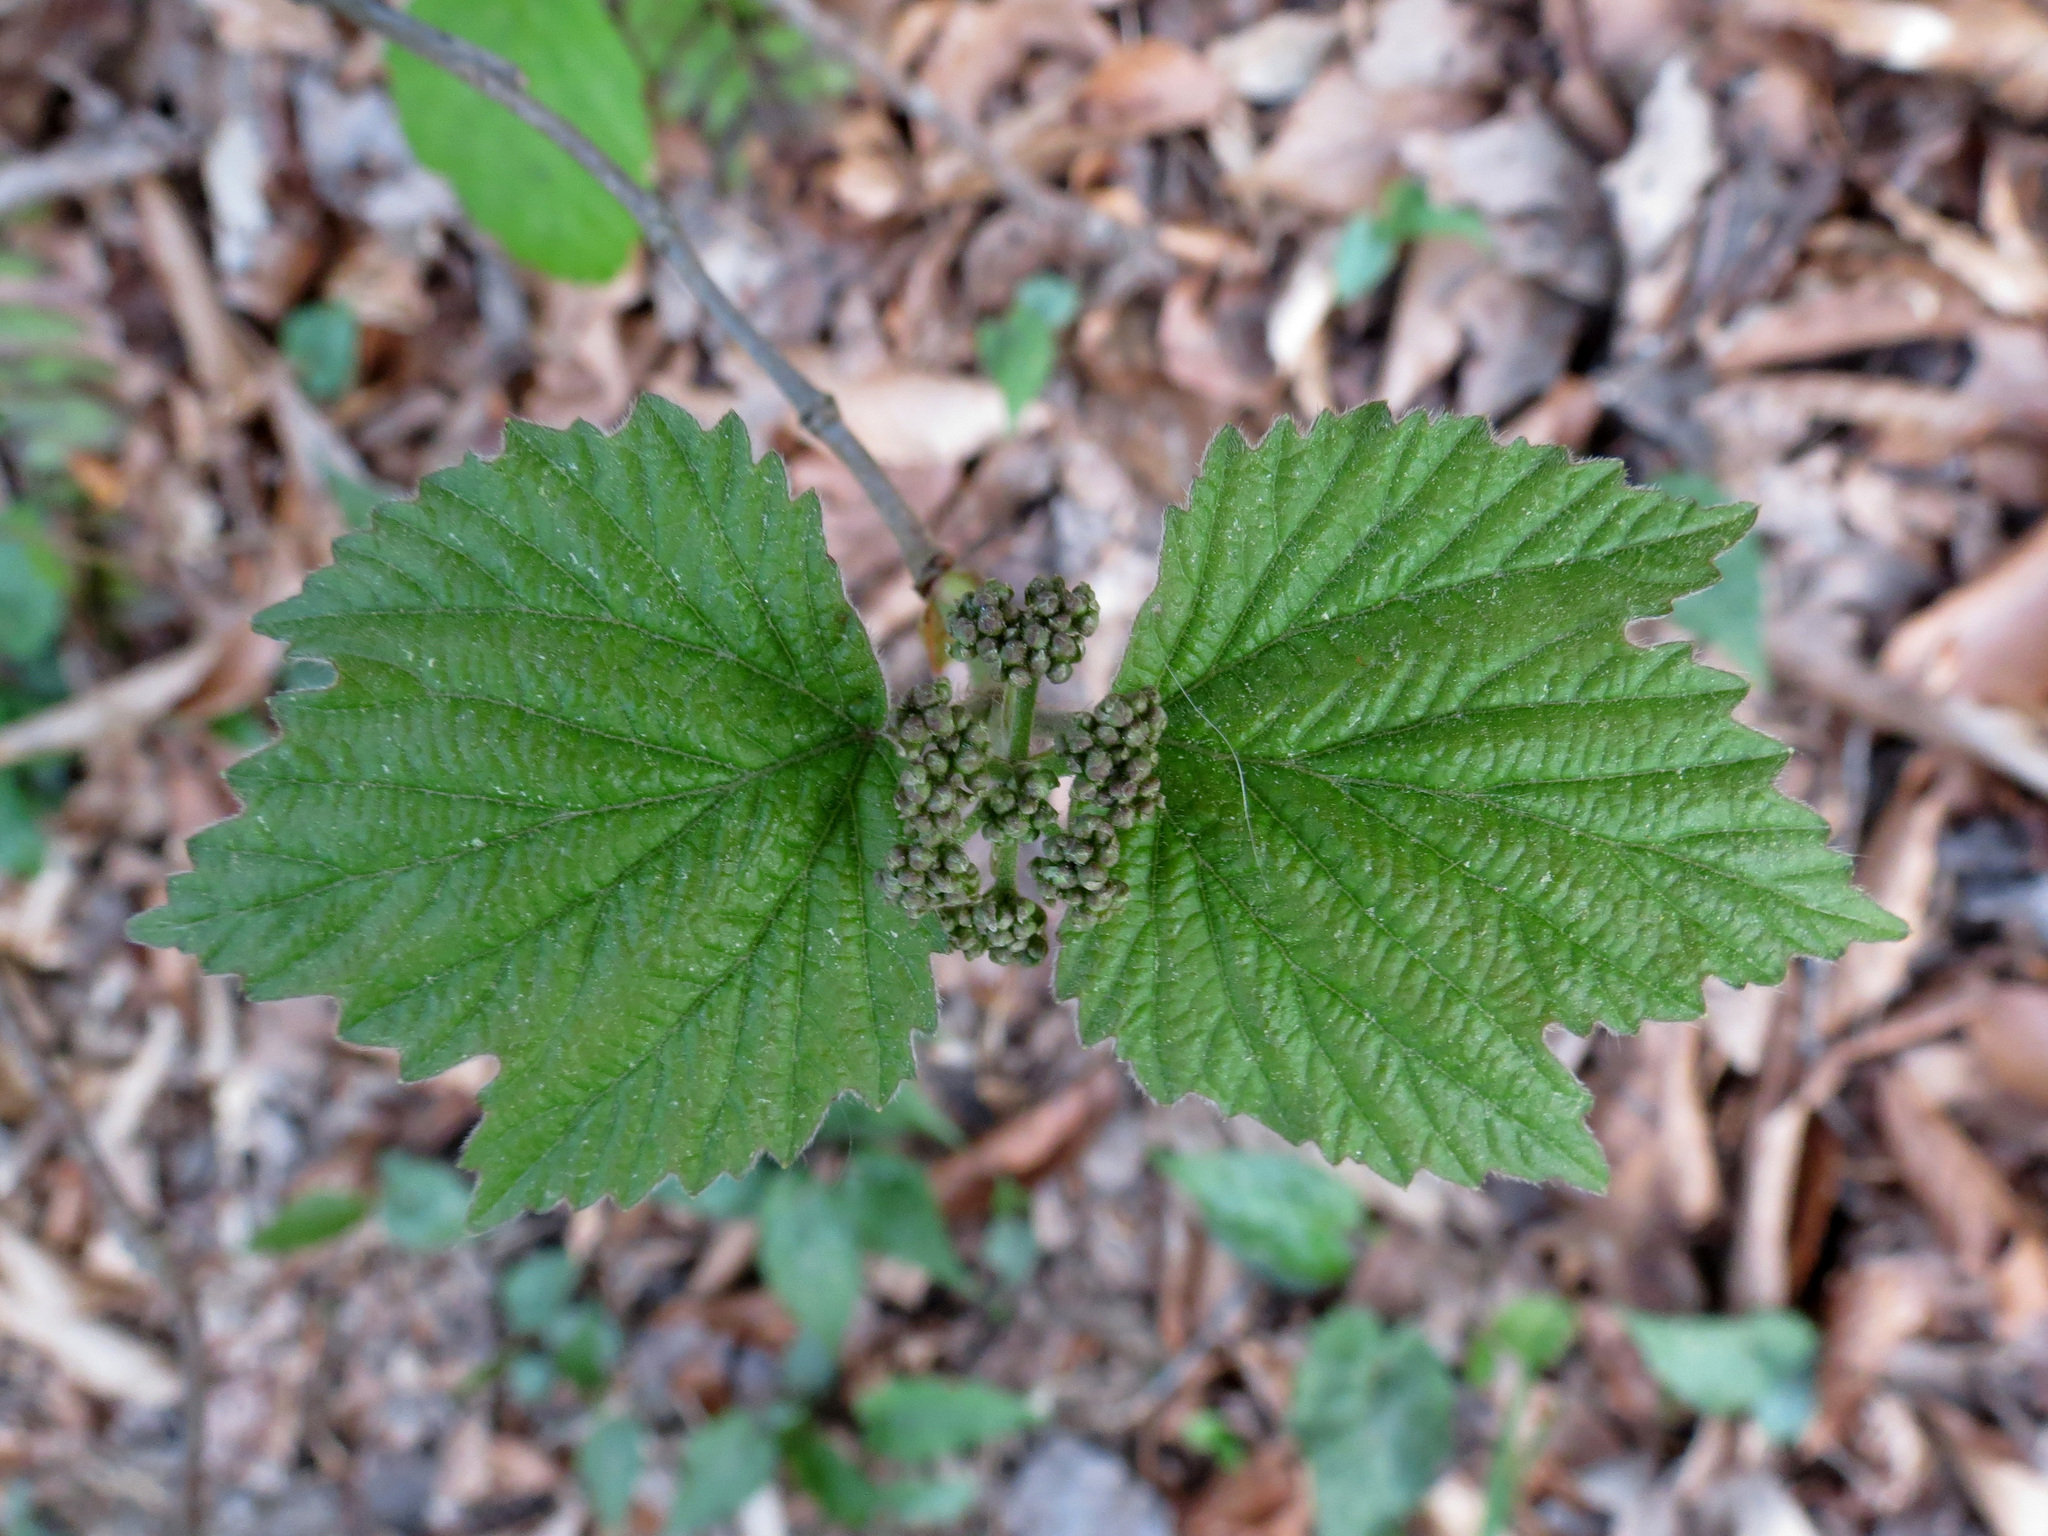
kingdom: Plantae
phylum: Tracheophyta
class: Magnoliopsida
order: Dipsacales
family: Viburnaceae
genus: Viburnum
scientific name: Viburnum acerifolium
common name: Dockmackie
